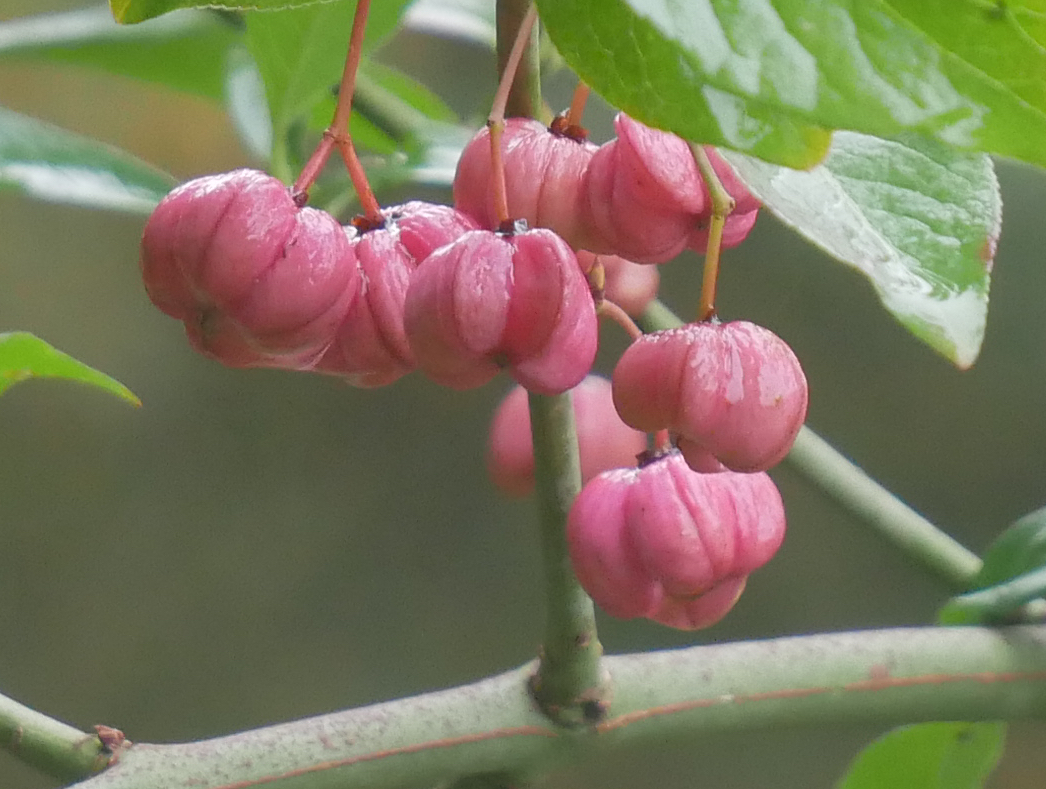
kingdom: Plantae
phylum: Tracheophyta
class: Magnoliopsida
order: Celastrales
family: Celastraceae
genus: Euonymus
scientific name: Euonymus europaeus
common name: Spindle
